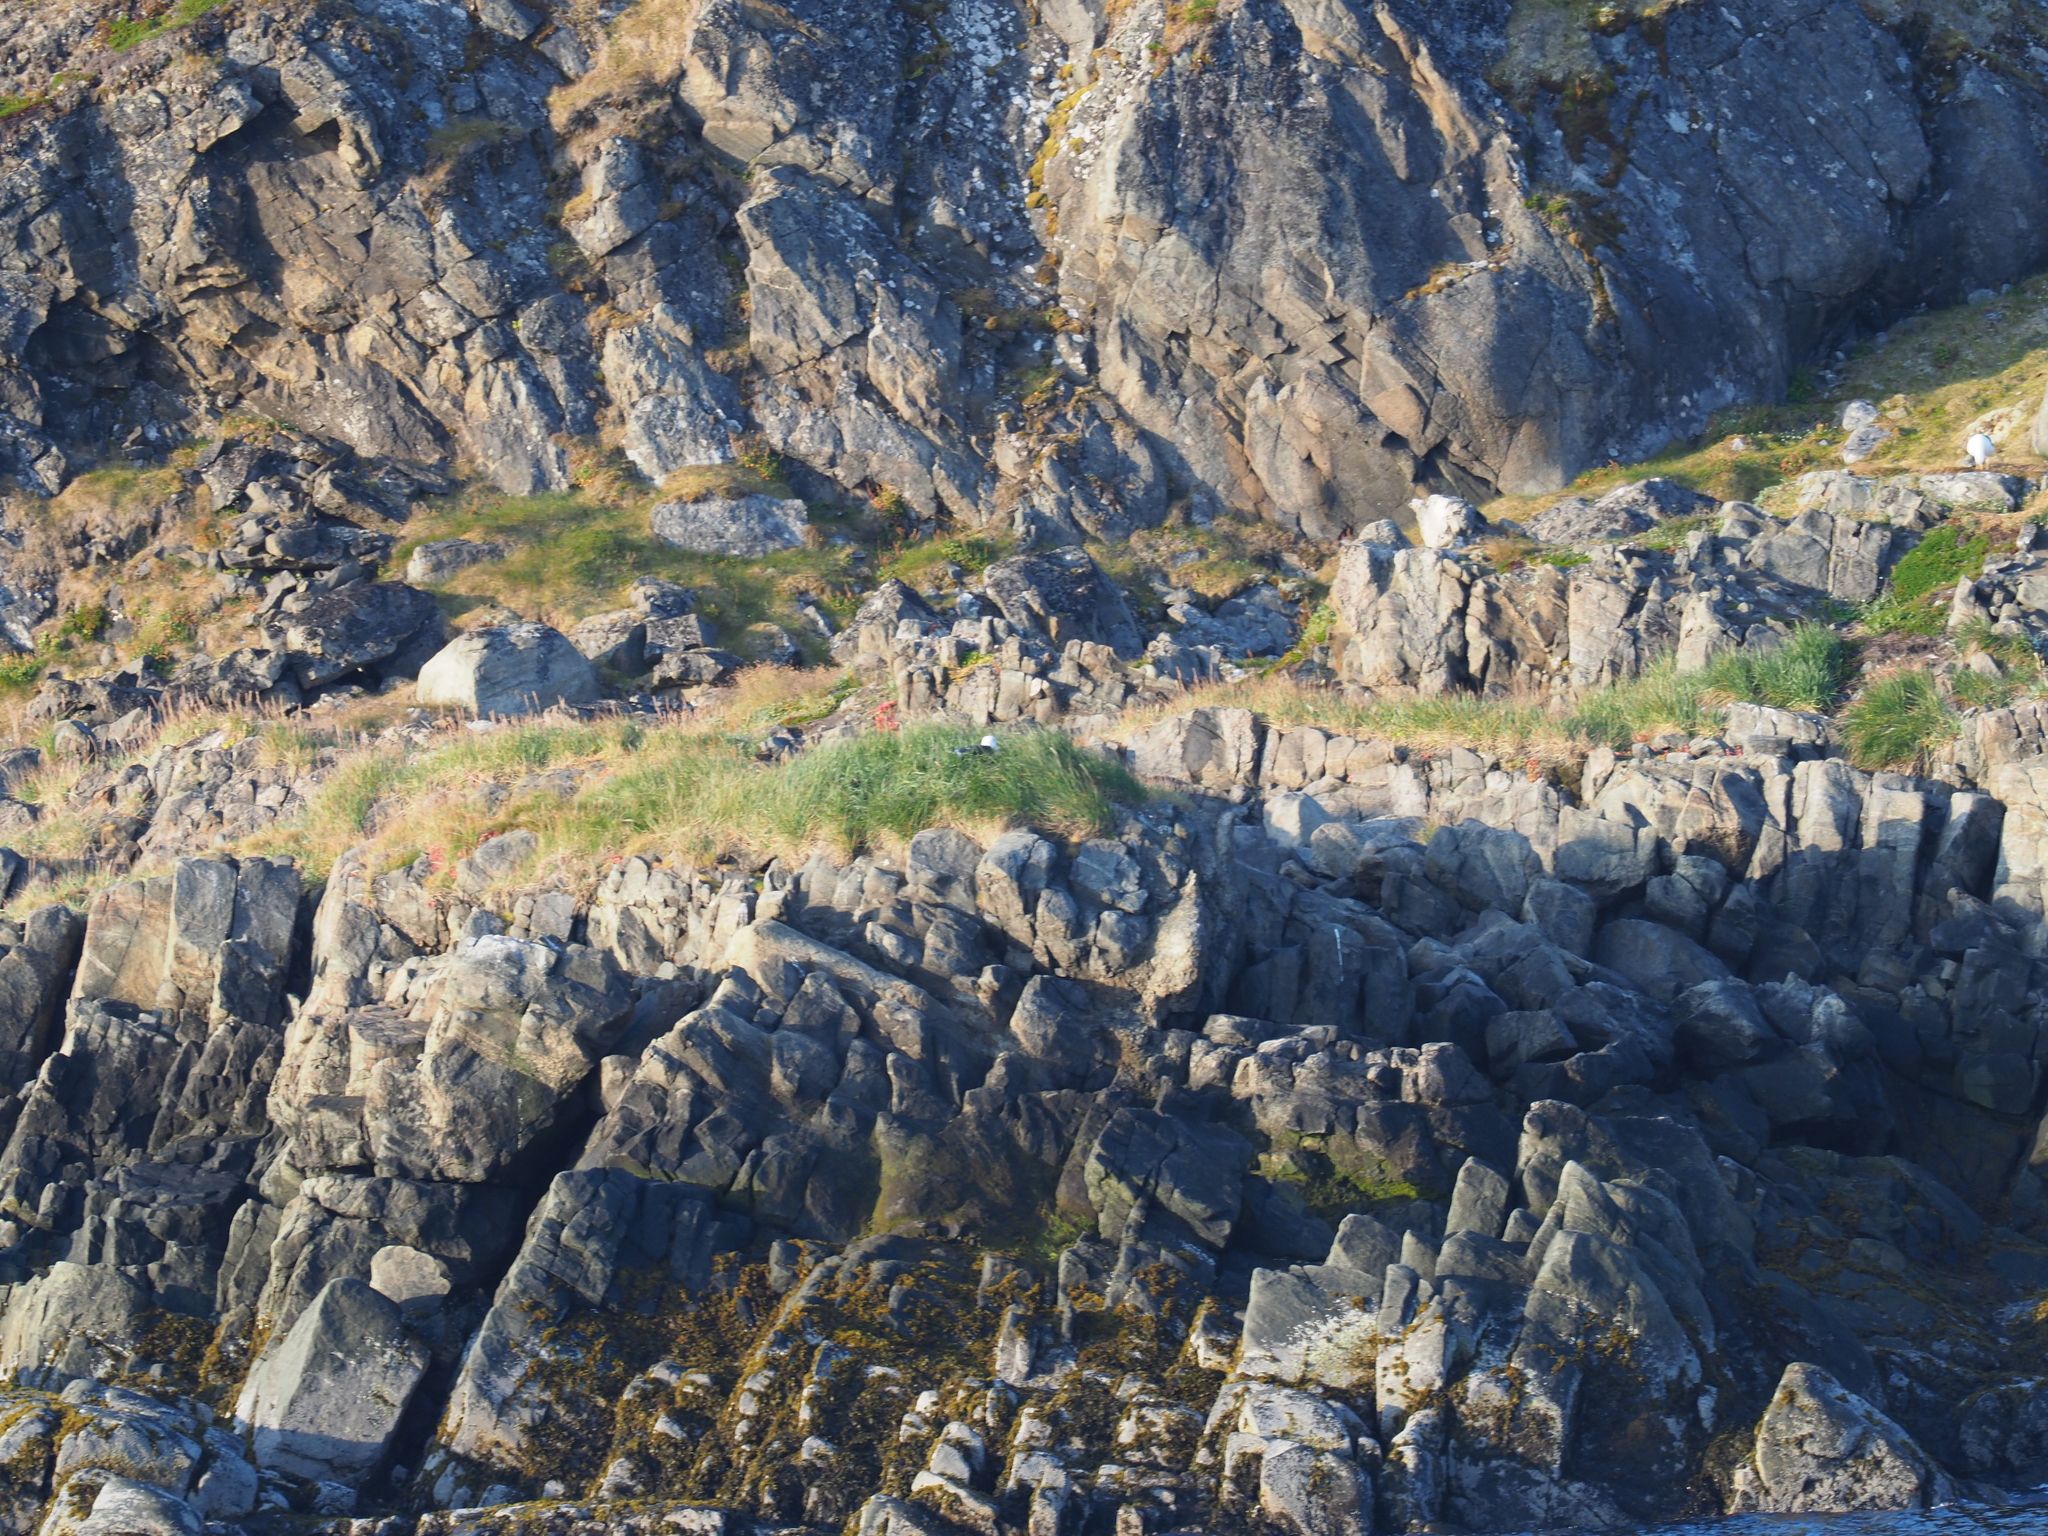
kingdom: Animalia
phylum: Chordata
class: Aves
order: Charadriiformes
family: Laridae
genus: Larus
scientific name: Larus marinus
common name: Great black-backed gull
